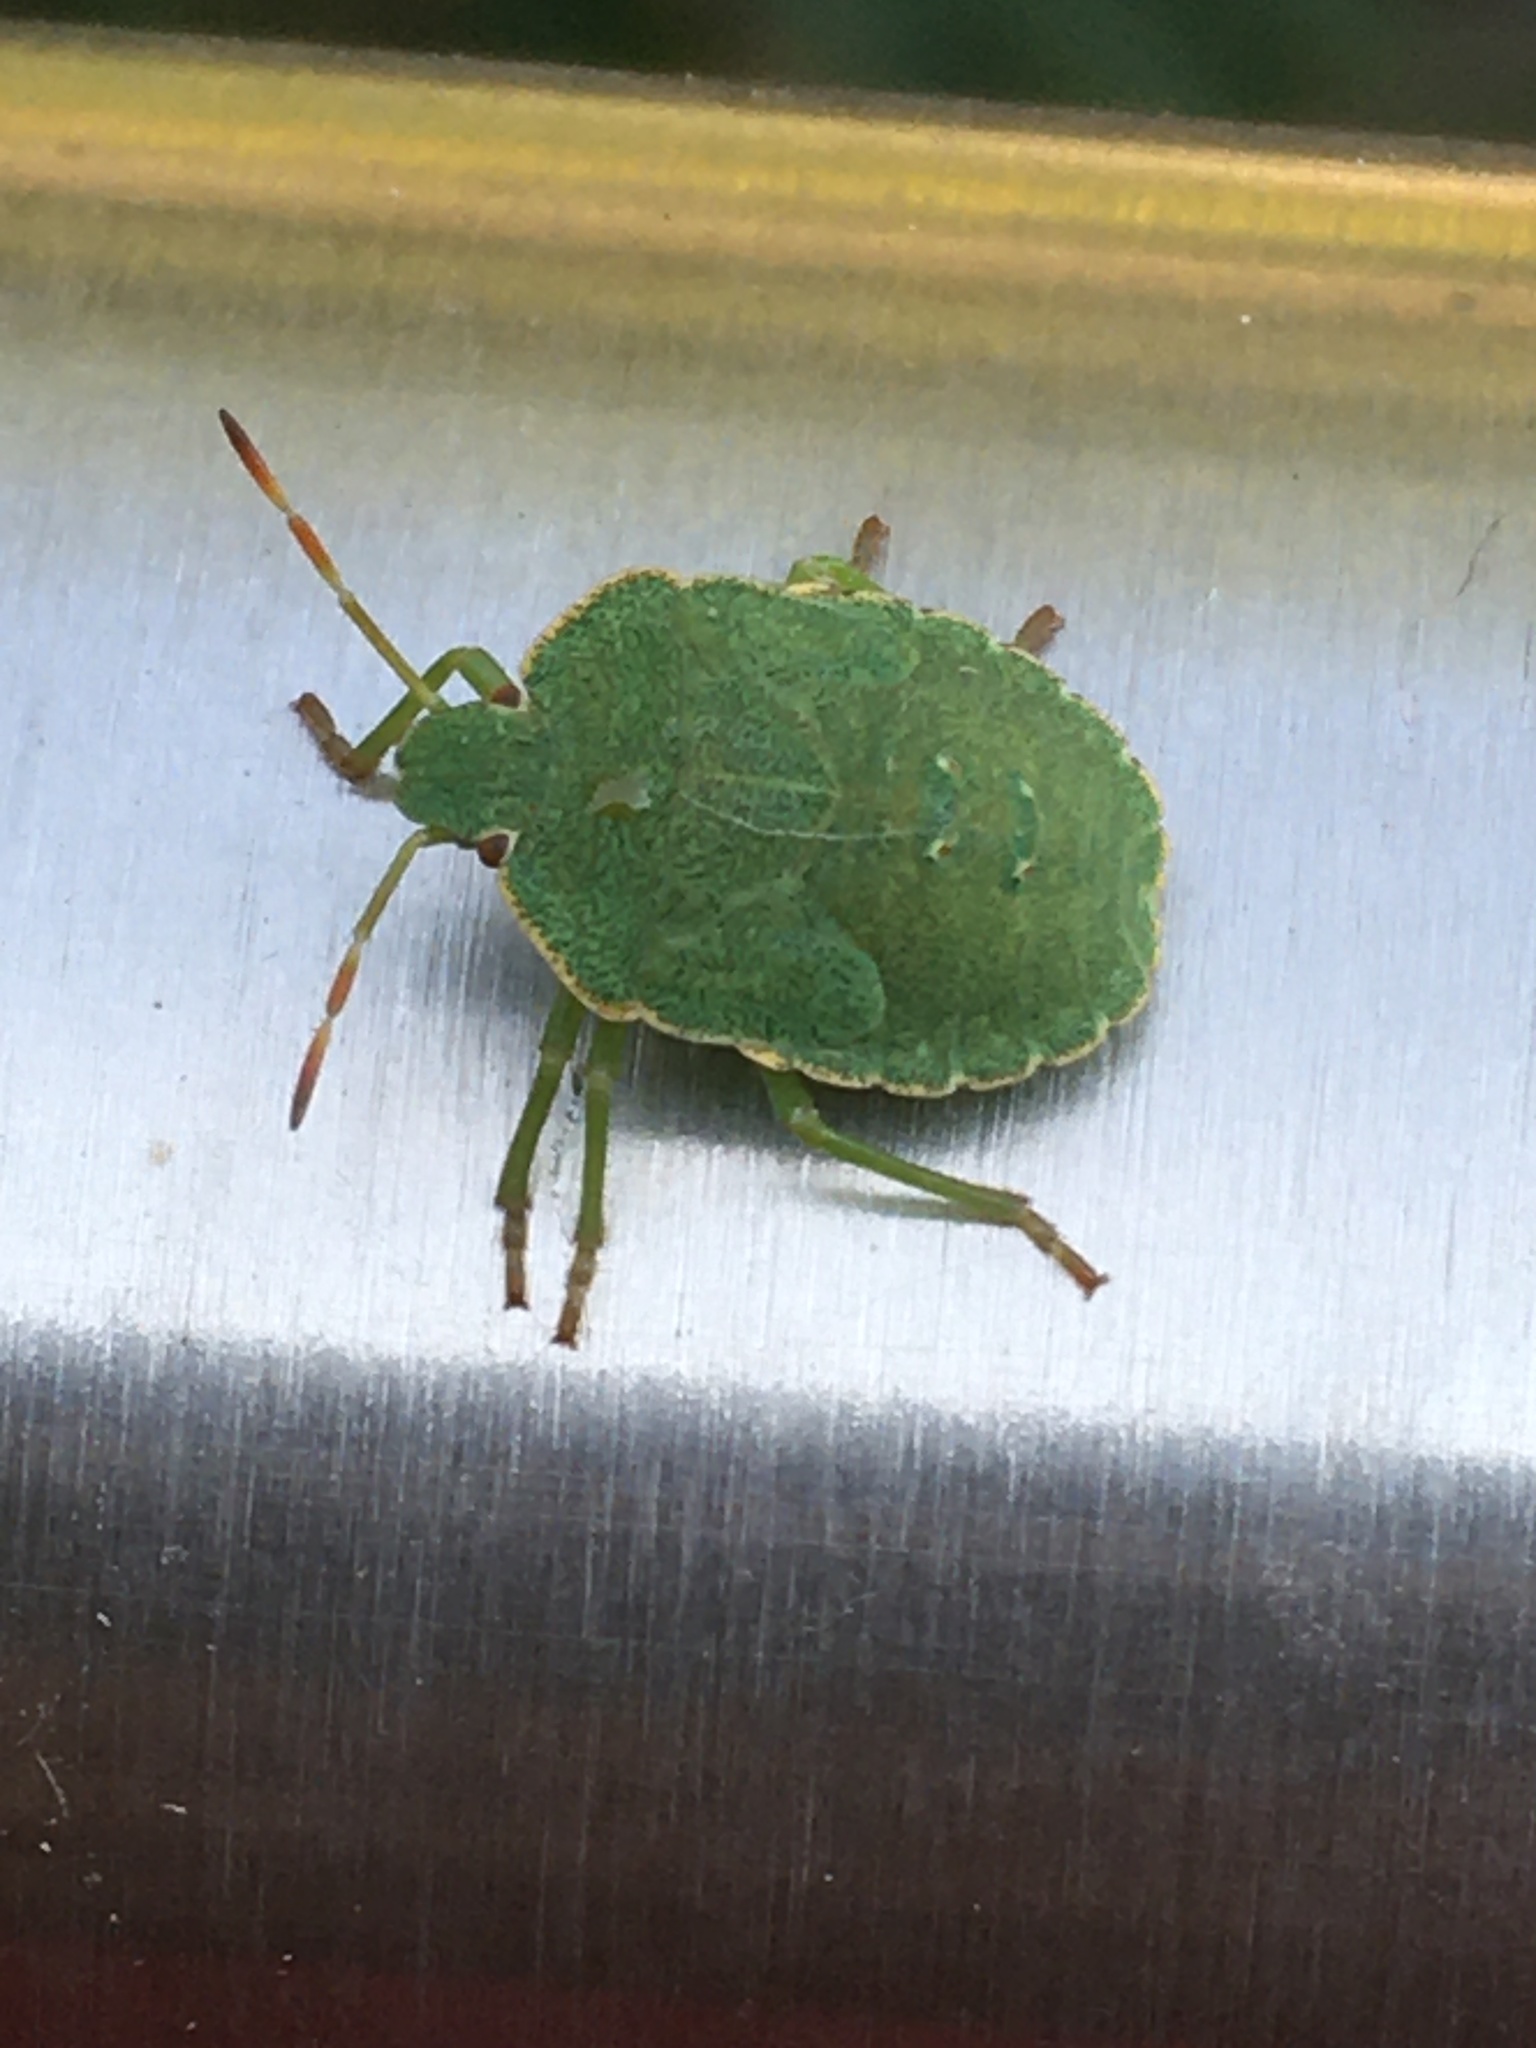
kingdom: Animalia
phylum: Arthropoda
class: Insecta
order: Hemiptera
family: Pentatomidae
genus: Palomena
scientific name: Palomena prasina
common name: Green shieldbug
